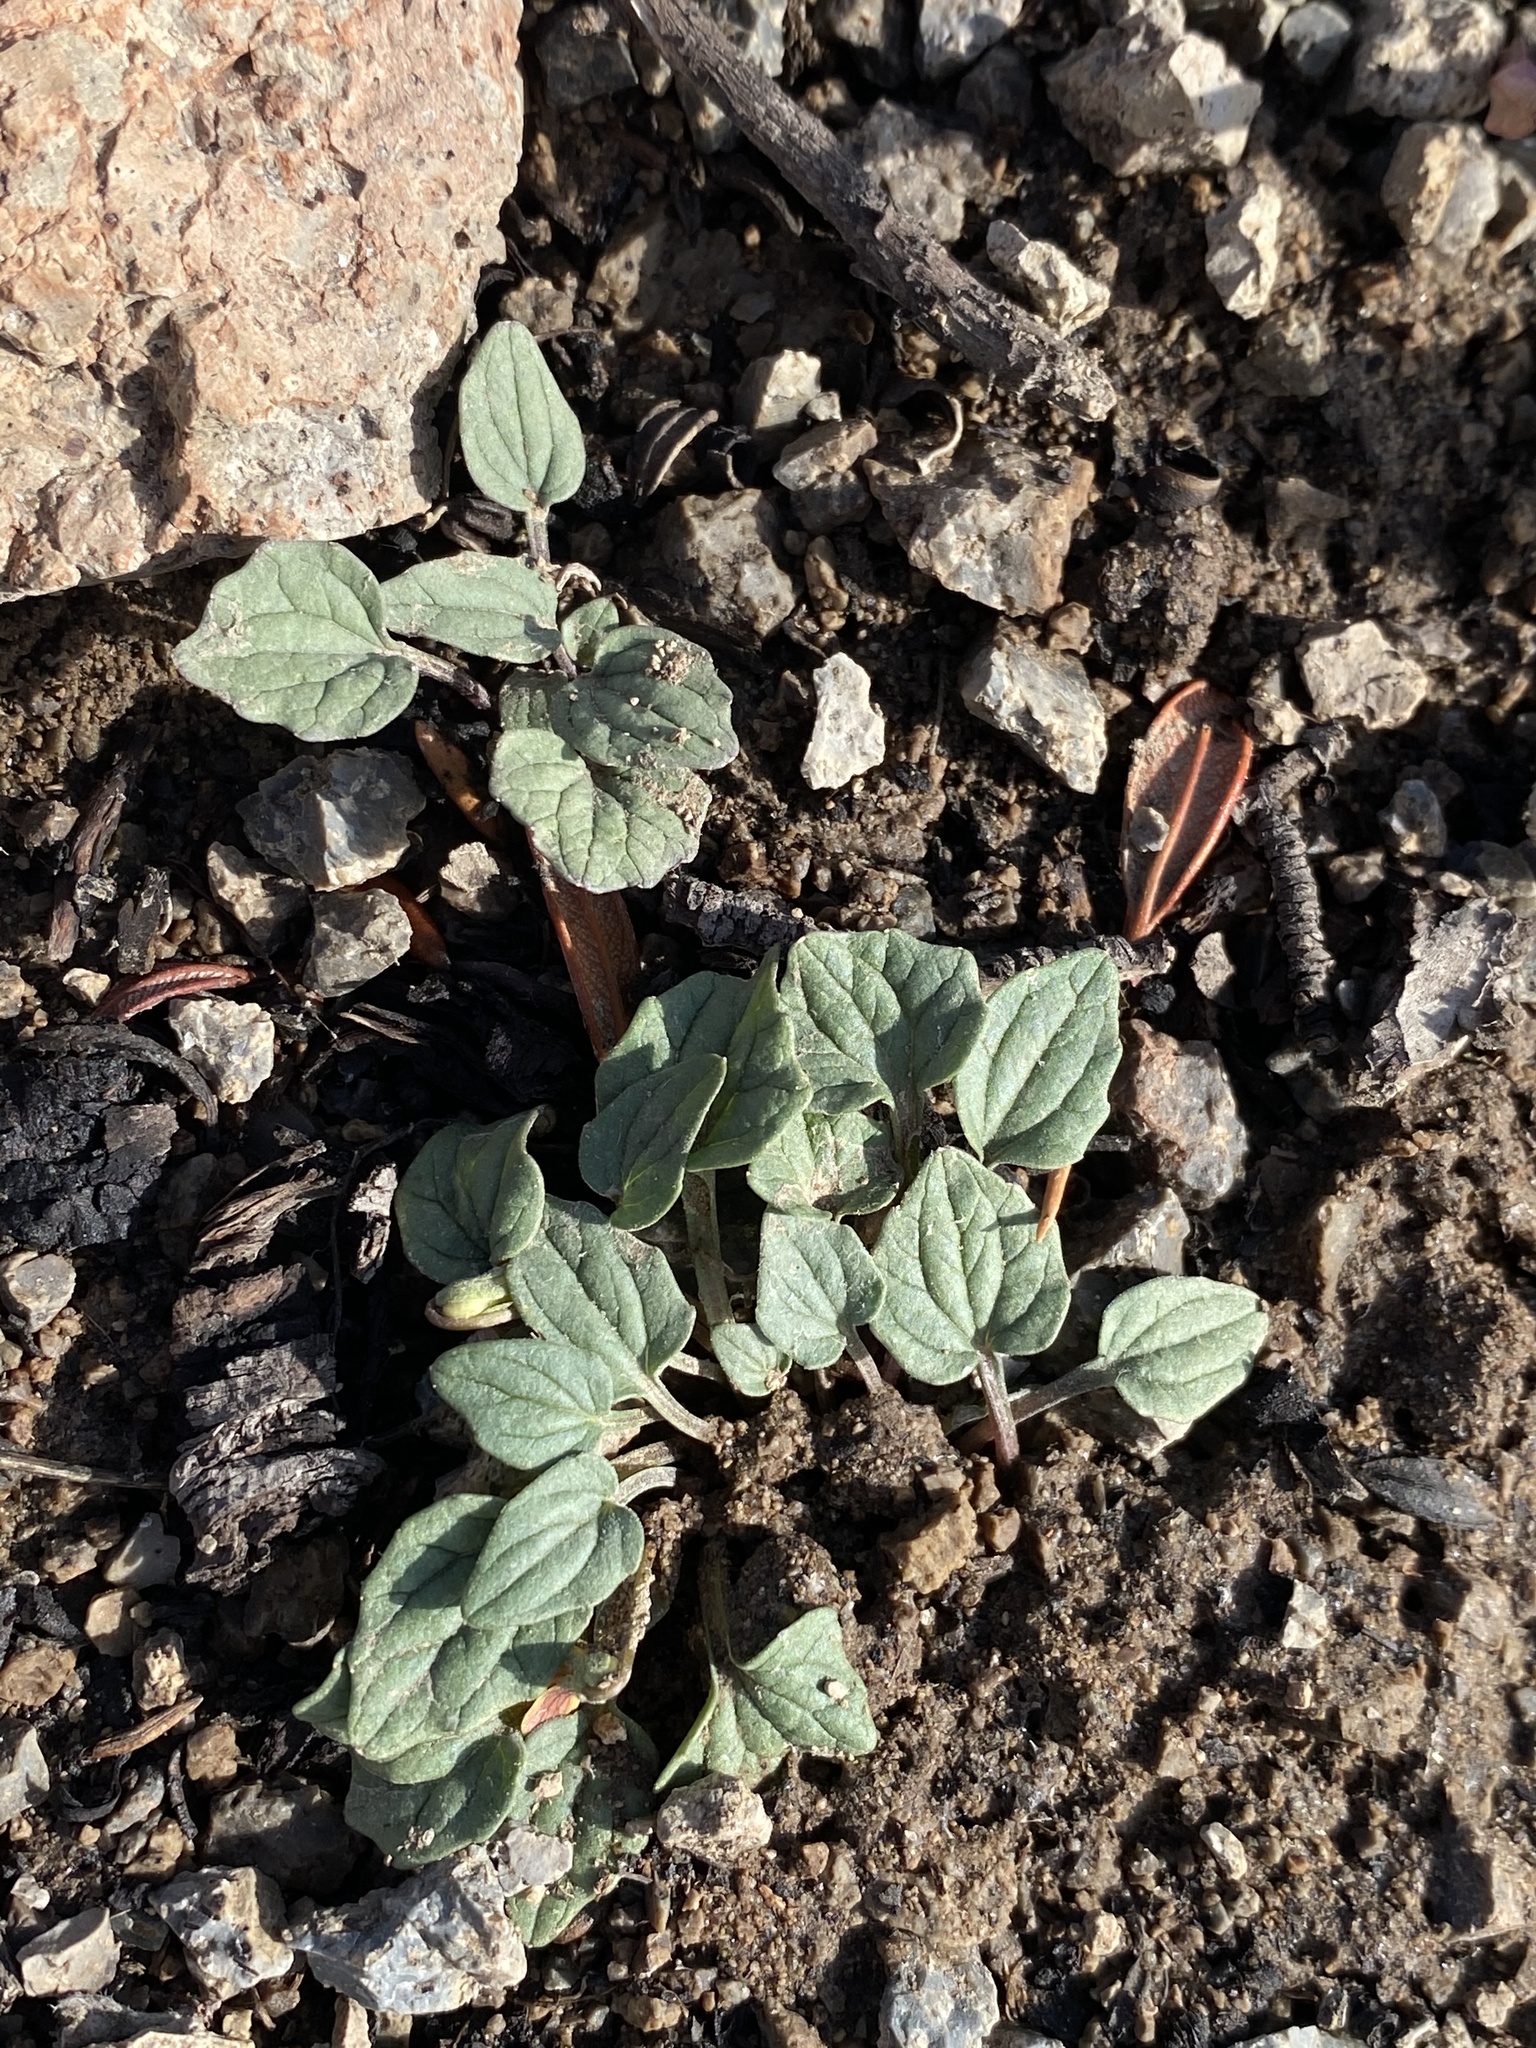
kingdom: Plantae
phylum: Tracheophyta
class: Magnoliopsida
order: Malpighiales
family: Violaceae
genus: Viola
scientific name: Viola purpurea
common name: Pine violet
